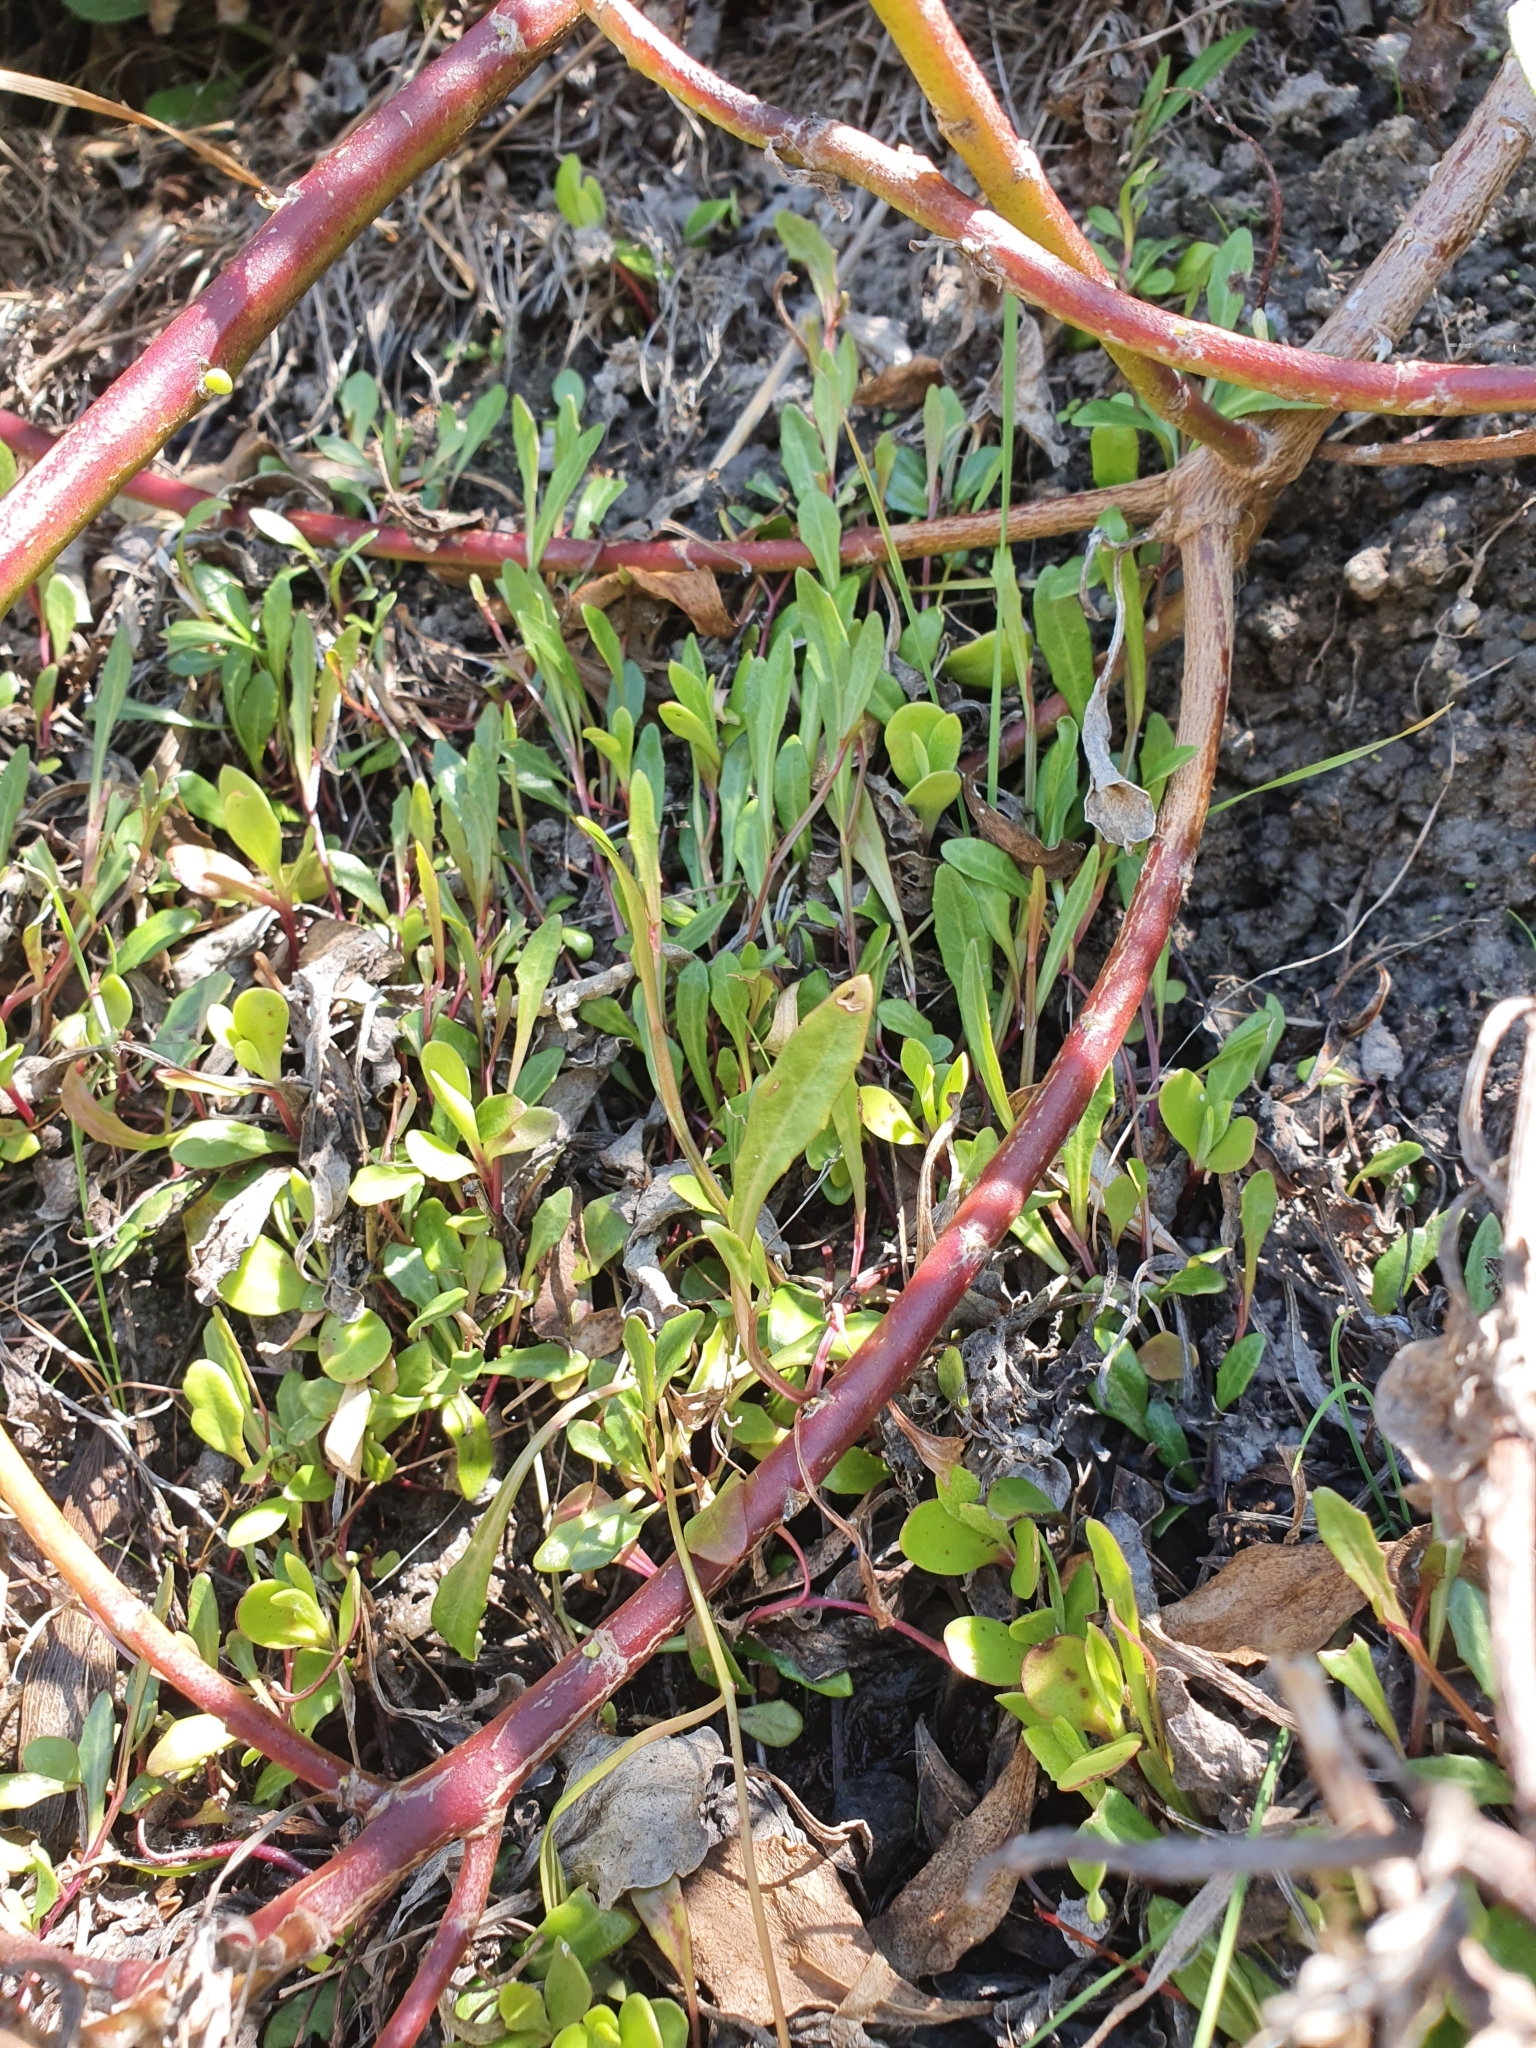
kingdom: Plantae
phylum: Tracheophyta
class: Magnoliopsida
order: Asterales
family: Asteraceae
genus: Osteospermum
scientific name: Osteospermum moniliferum
